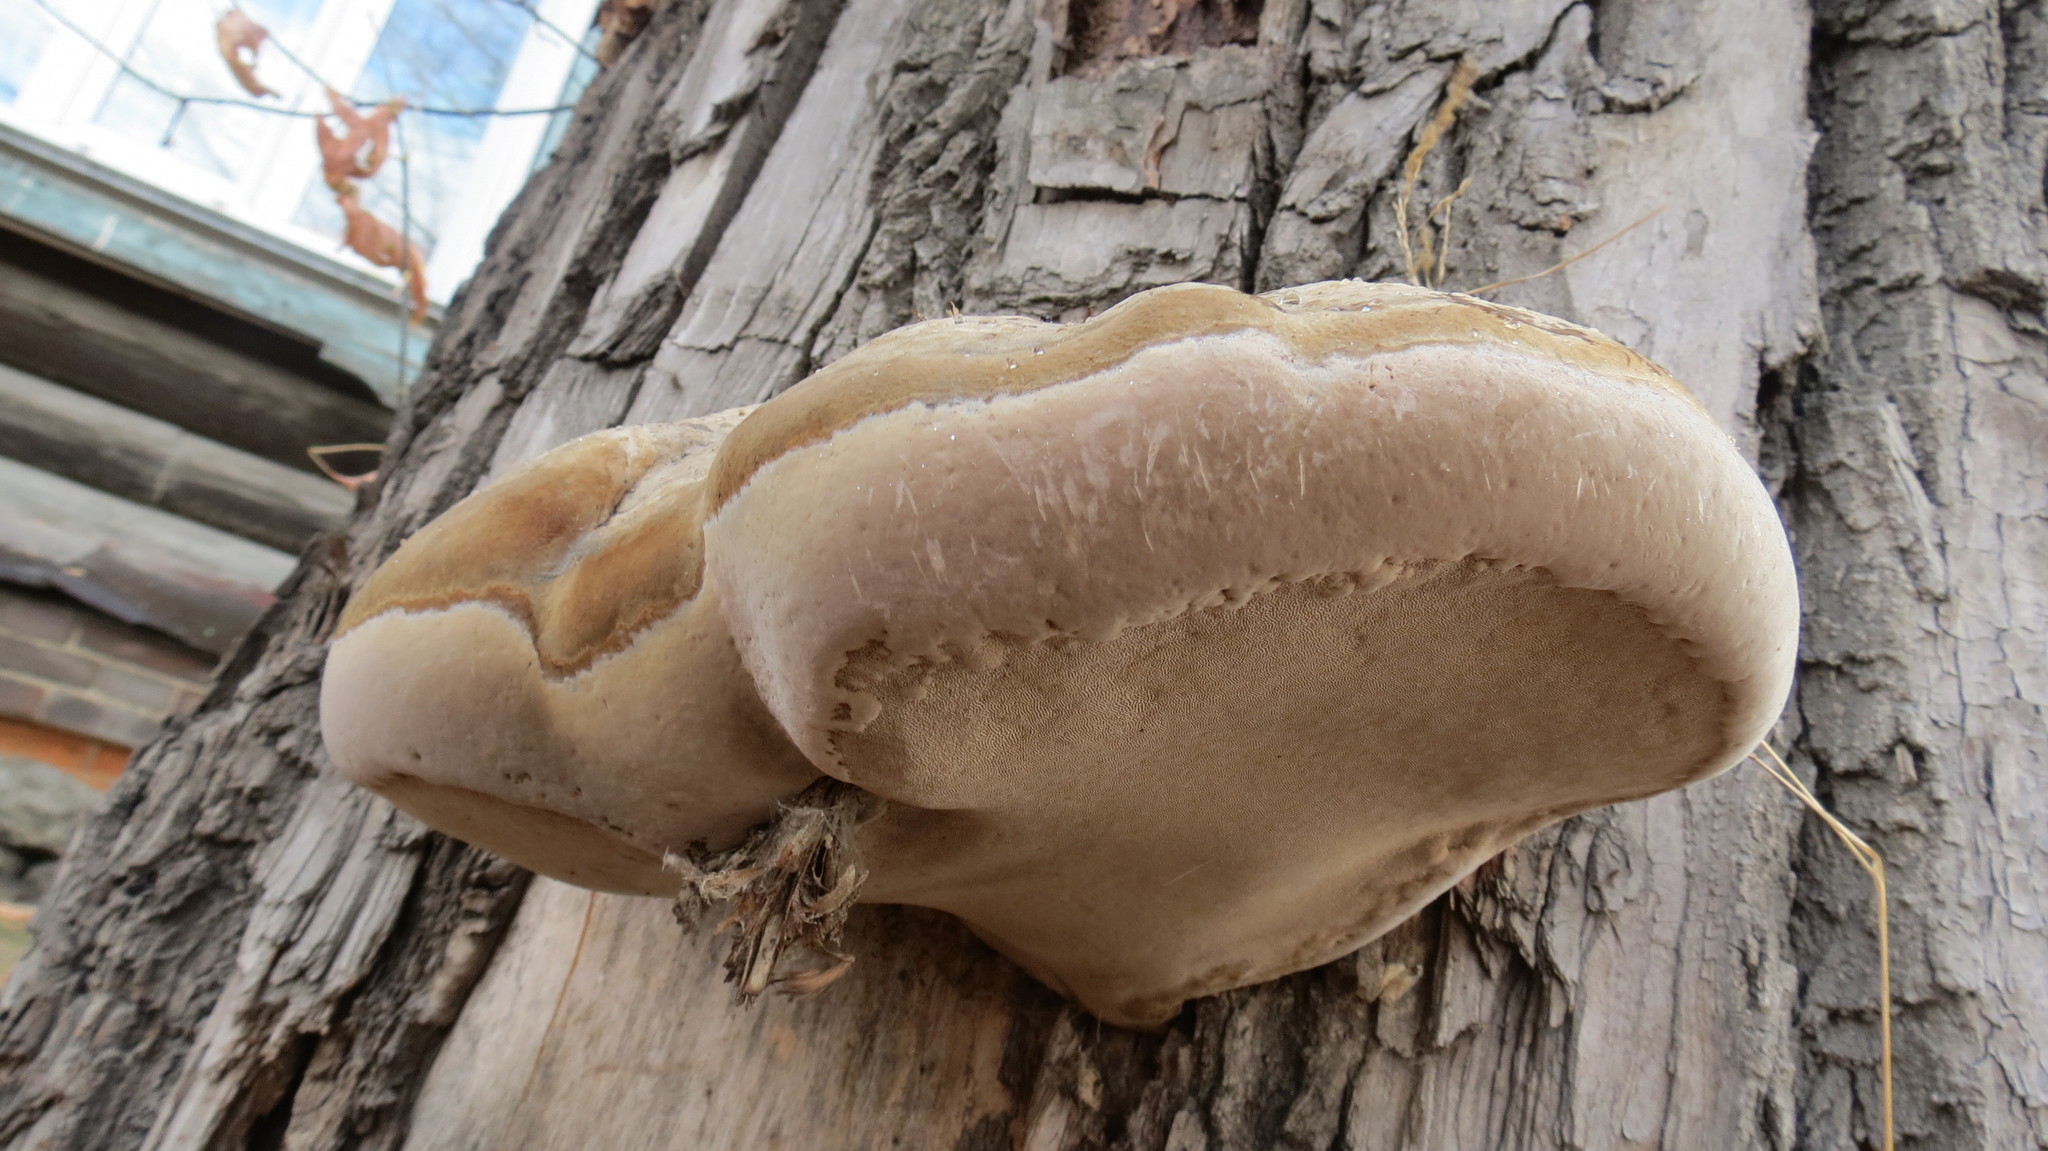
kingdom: Fungi
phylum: Basidiomycota
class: Agaricomycetes
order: Polyporales
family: Polyporaceae
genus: Fomes
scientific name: Fomes fomentarius
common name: Hoof fungus
